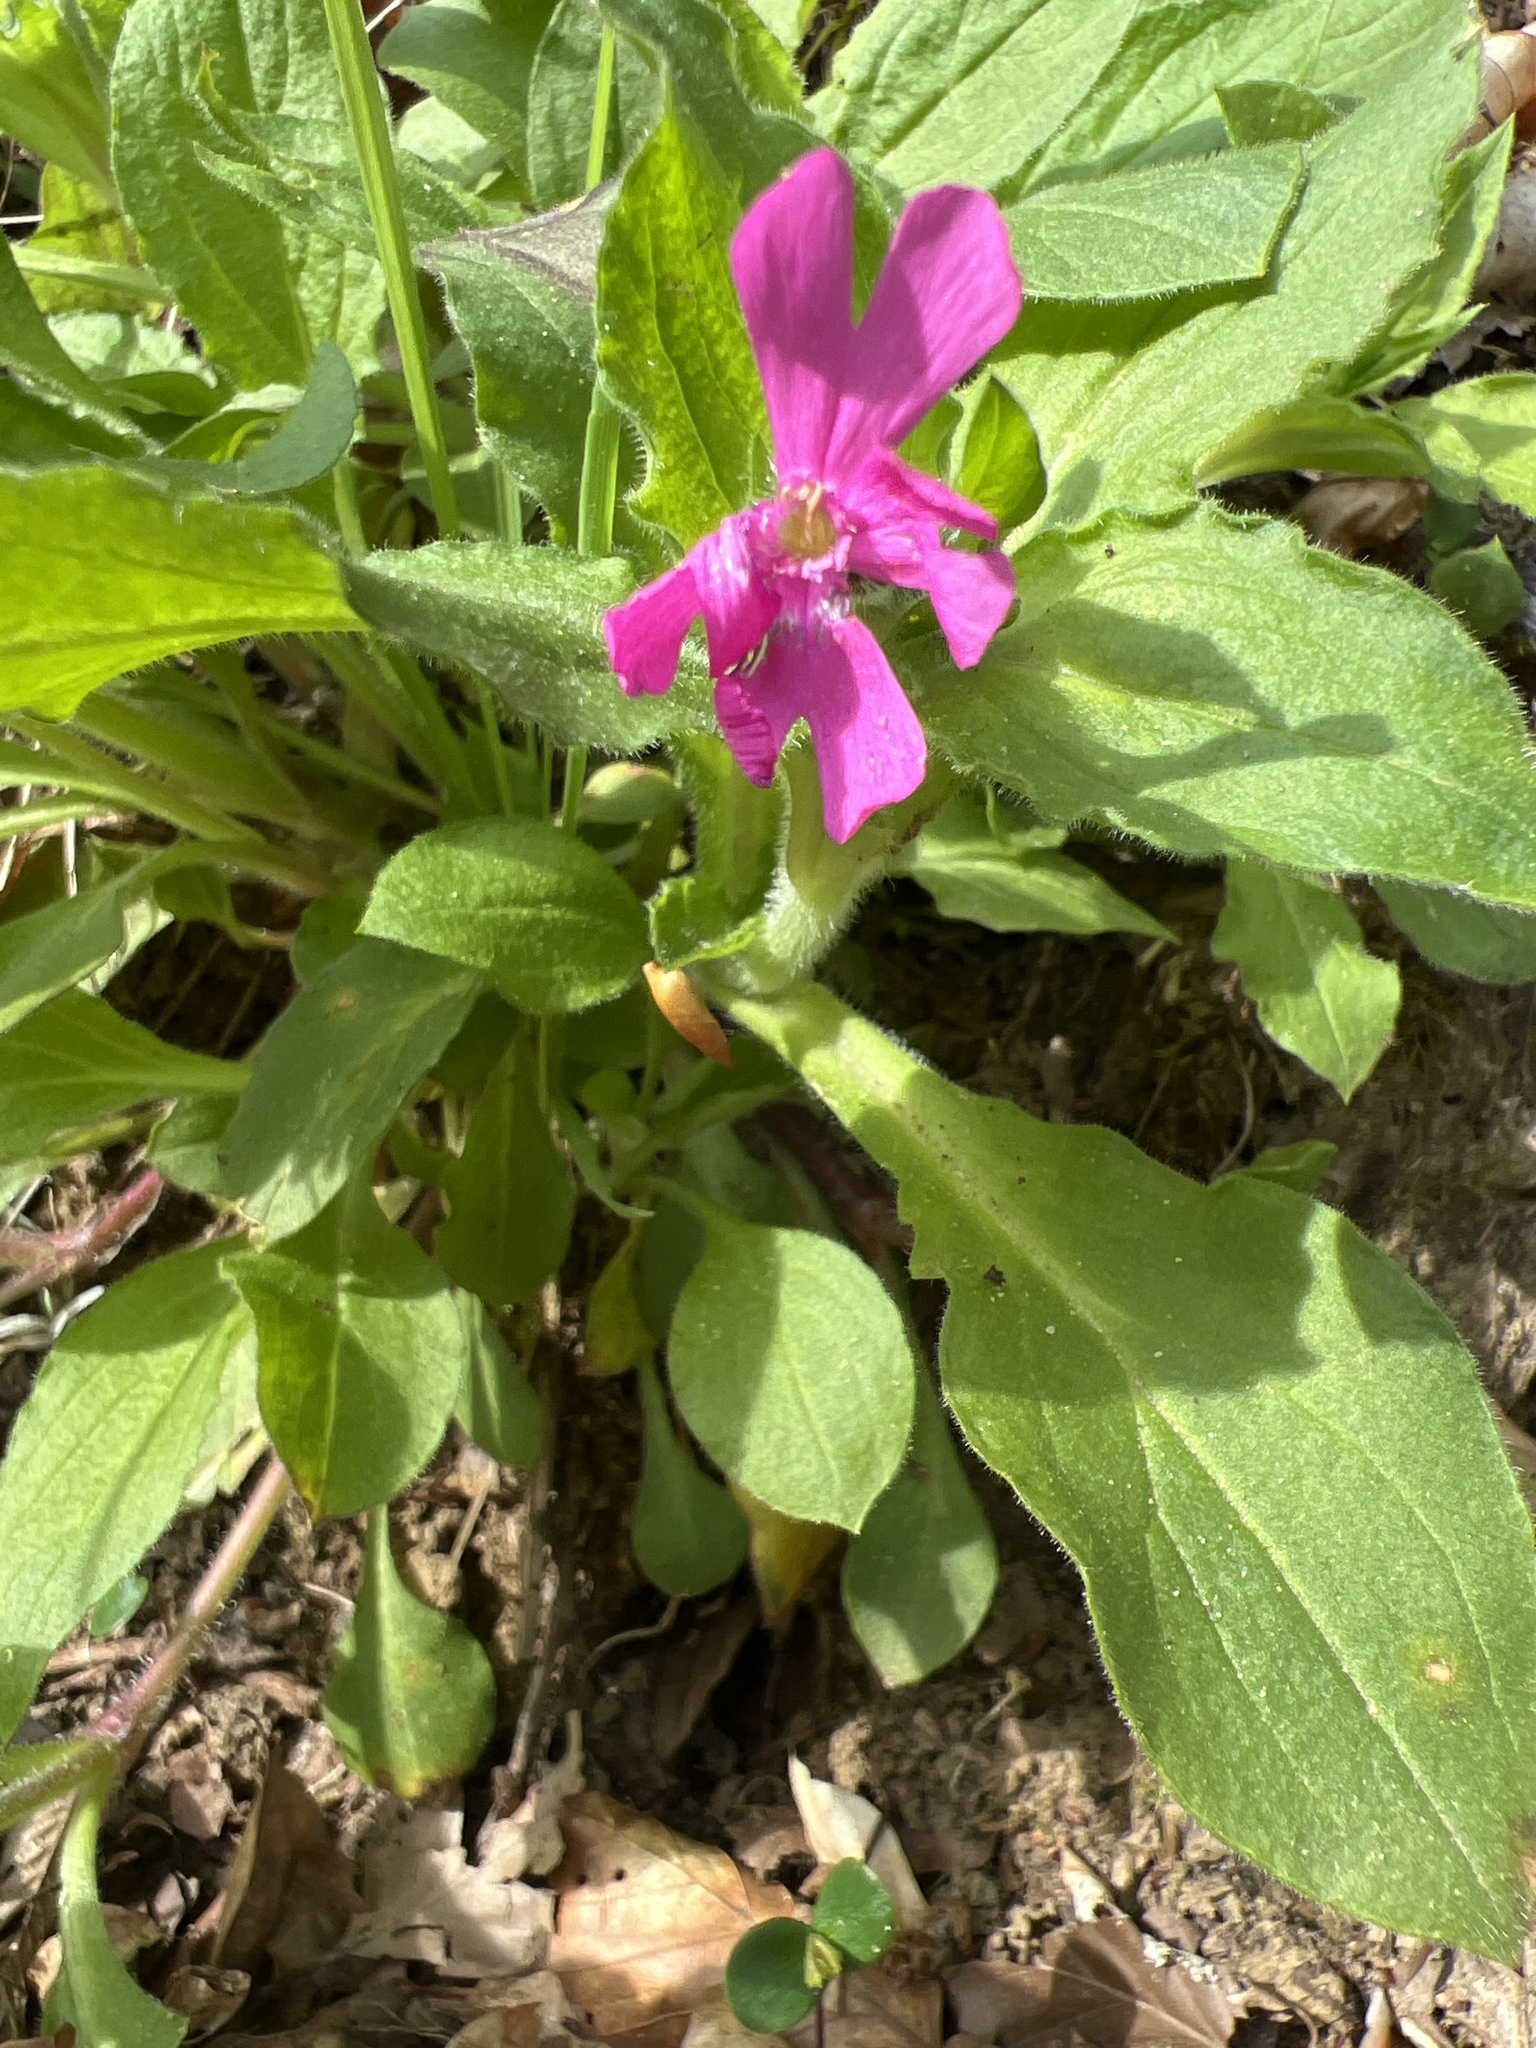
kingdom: Plantae
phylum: Tracheophyta
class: Magnoliopsida
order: Caryophyllales
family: Caryophyllaceae
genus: Silene
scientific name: Silene dioica
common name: Red campion
